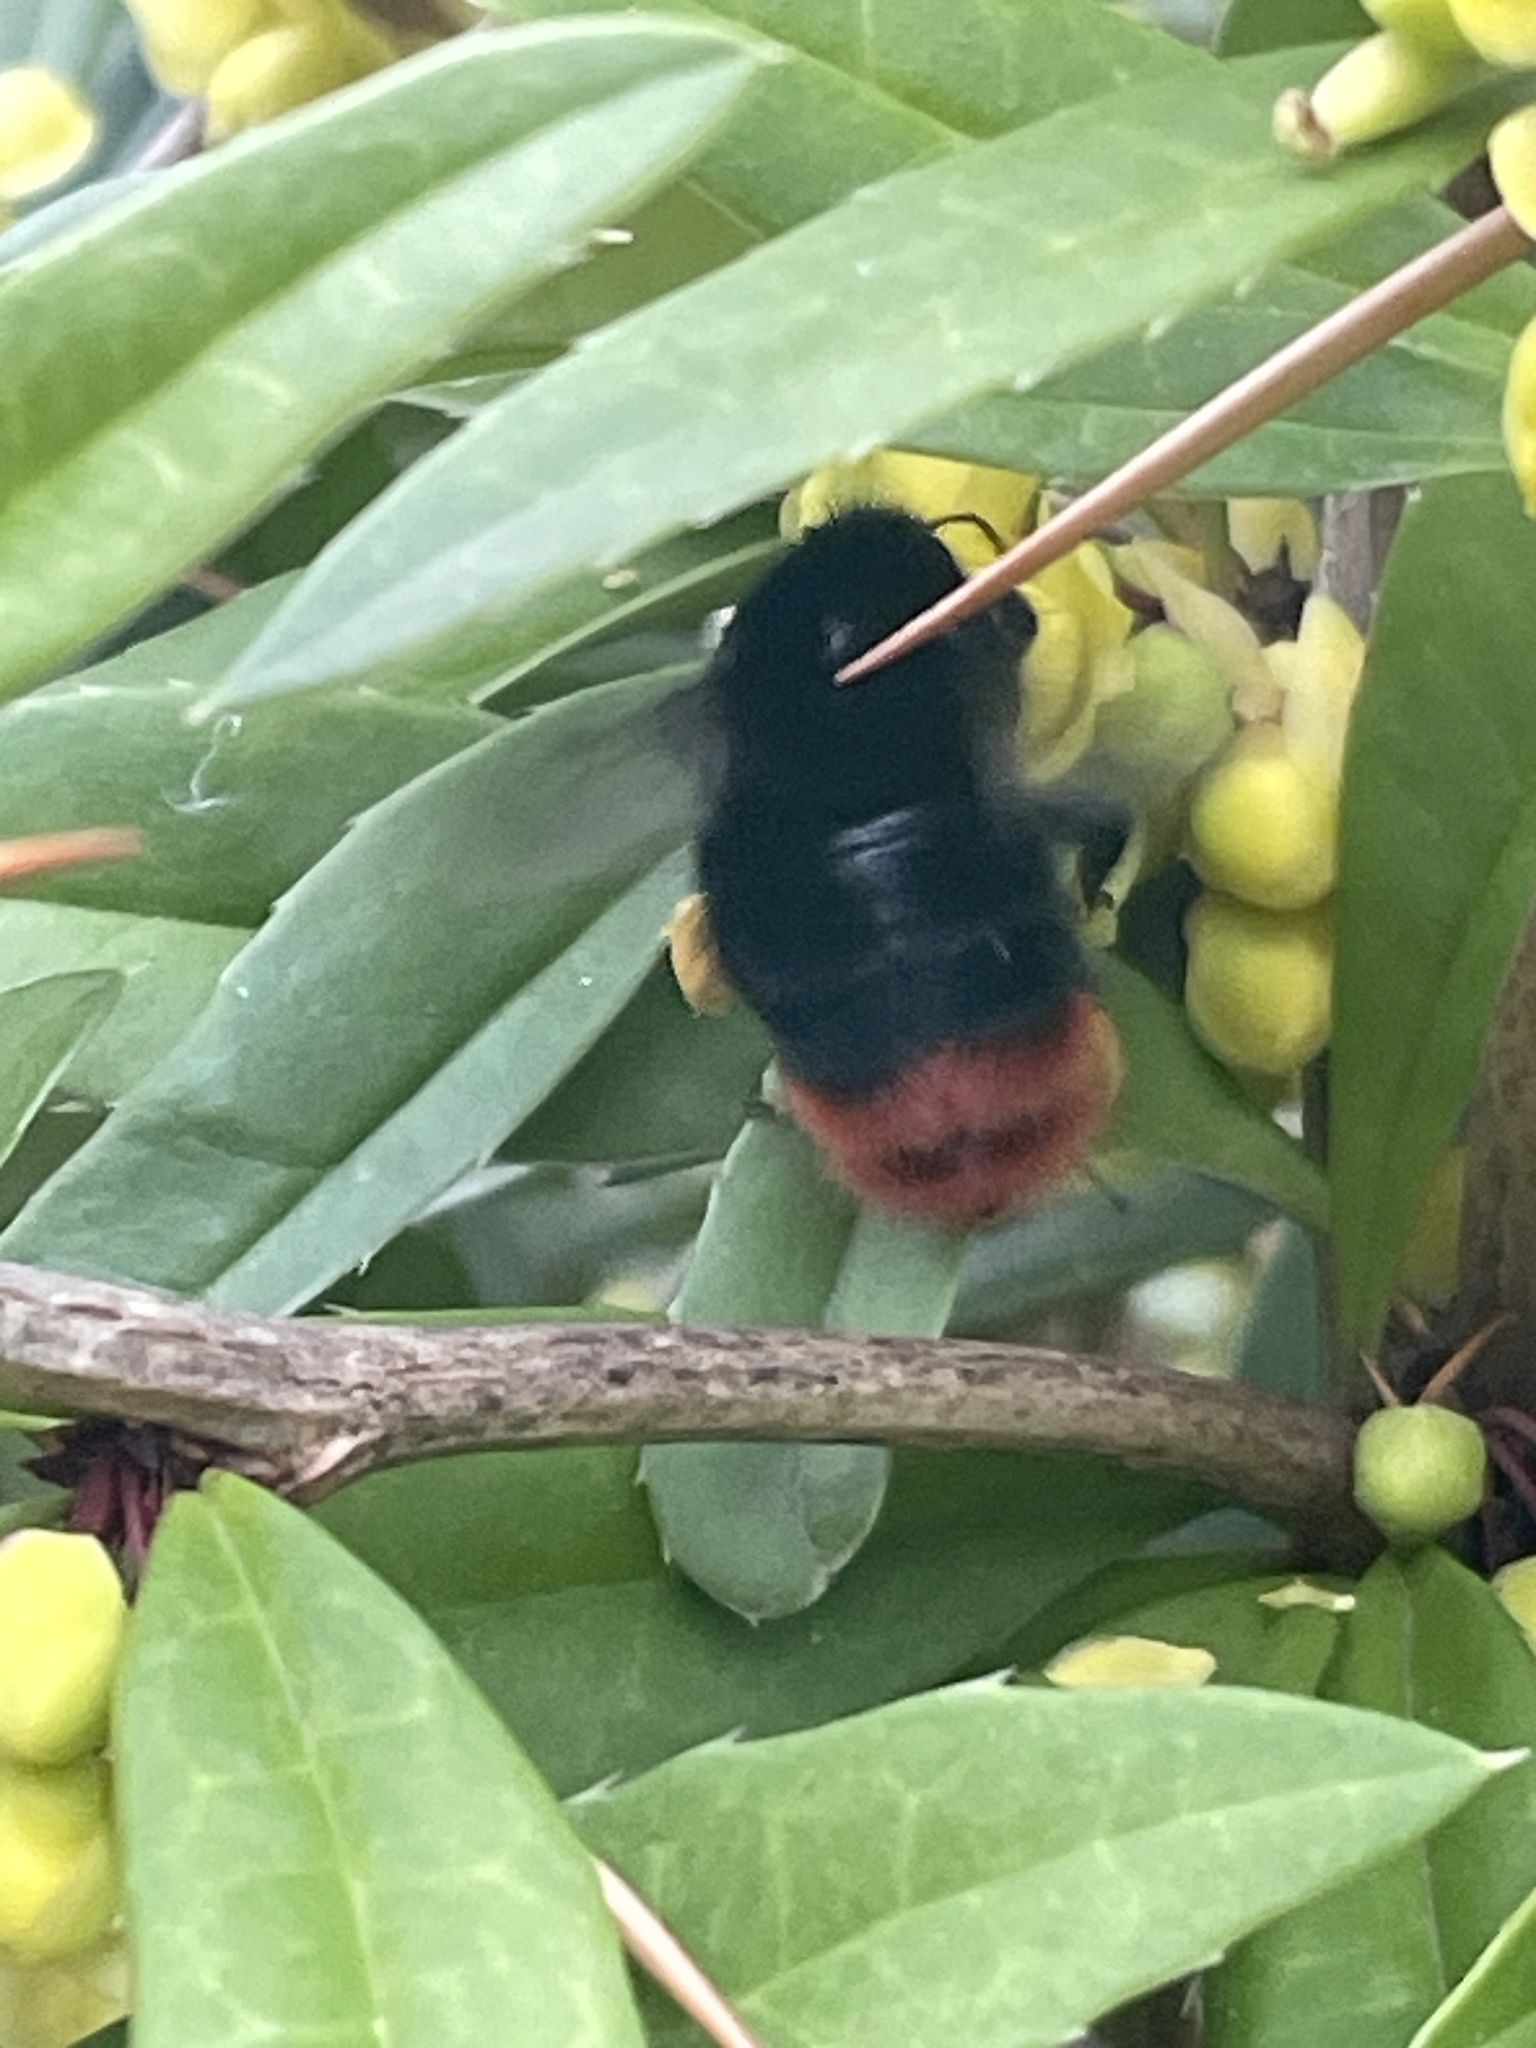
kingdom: Animalia
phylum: Arthropoda
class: Insecta
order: Hymenoptera
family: Apidae
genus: Bombus
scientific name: Bombus lapidarius
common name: Large red-tailed humble-bee
